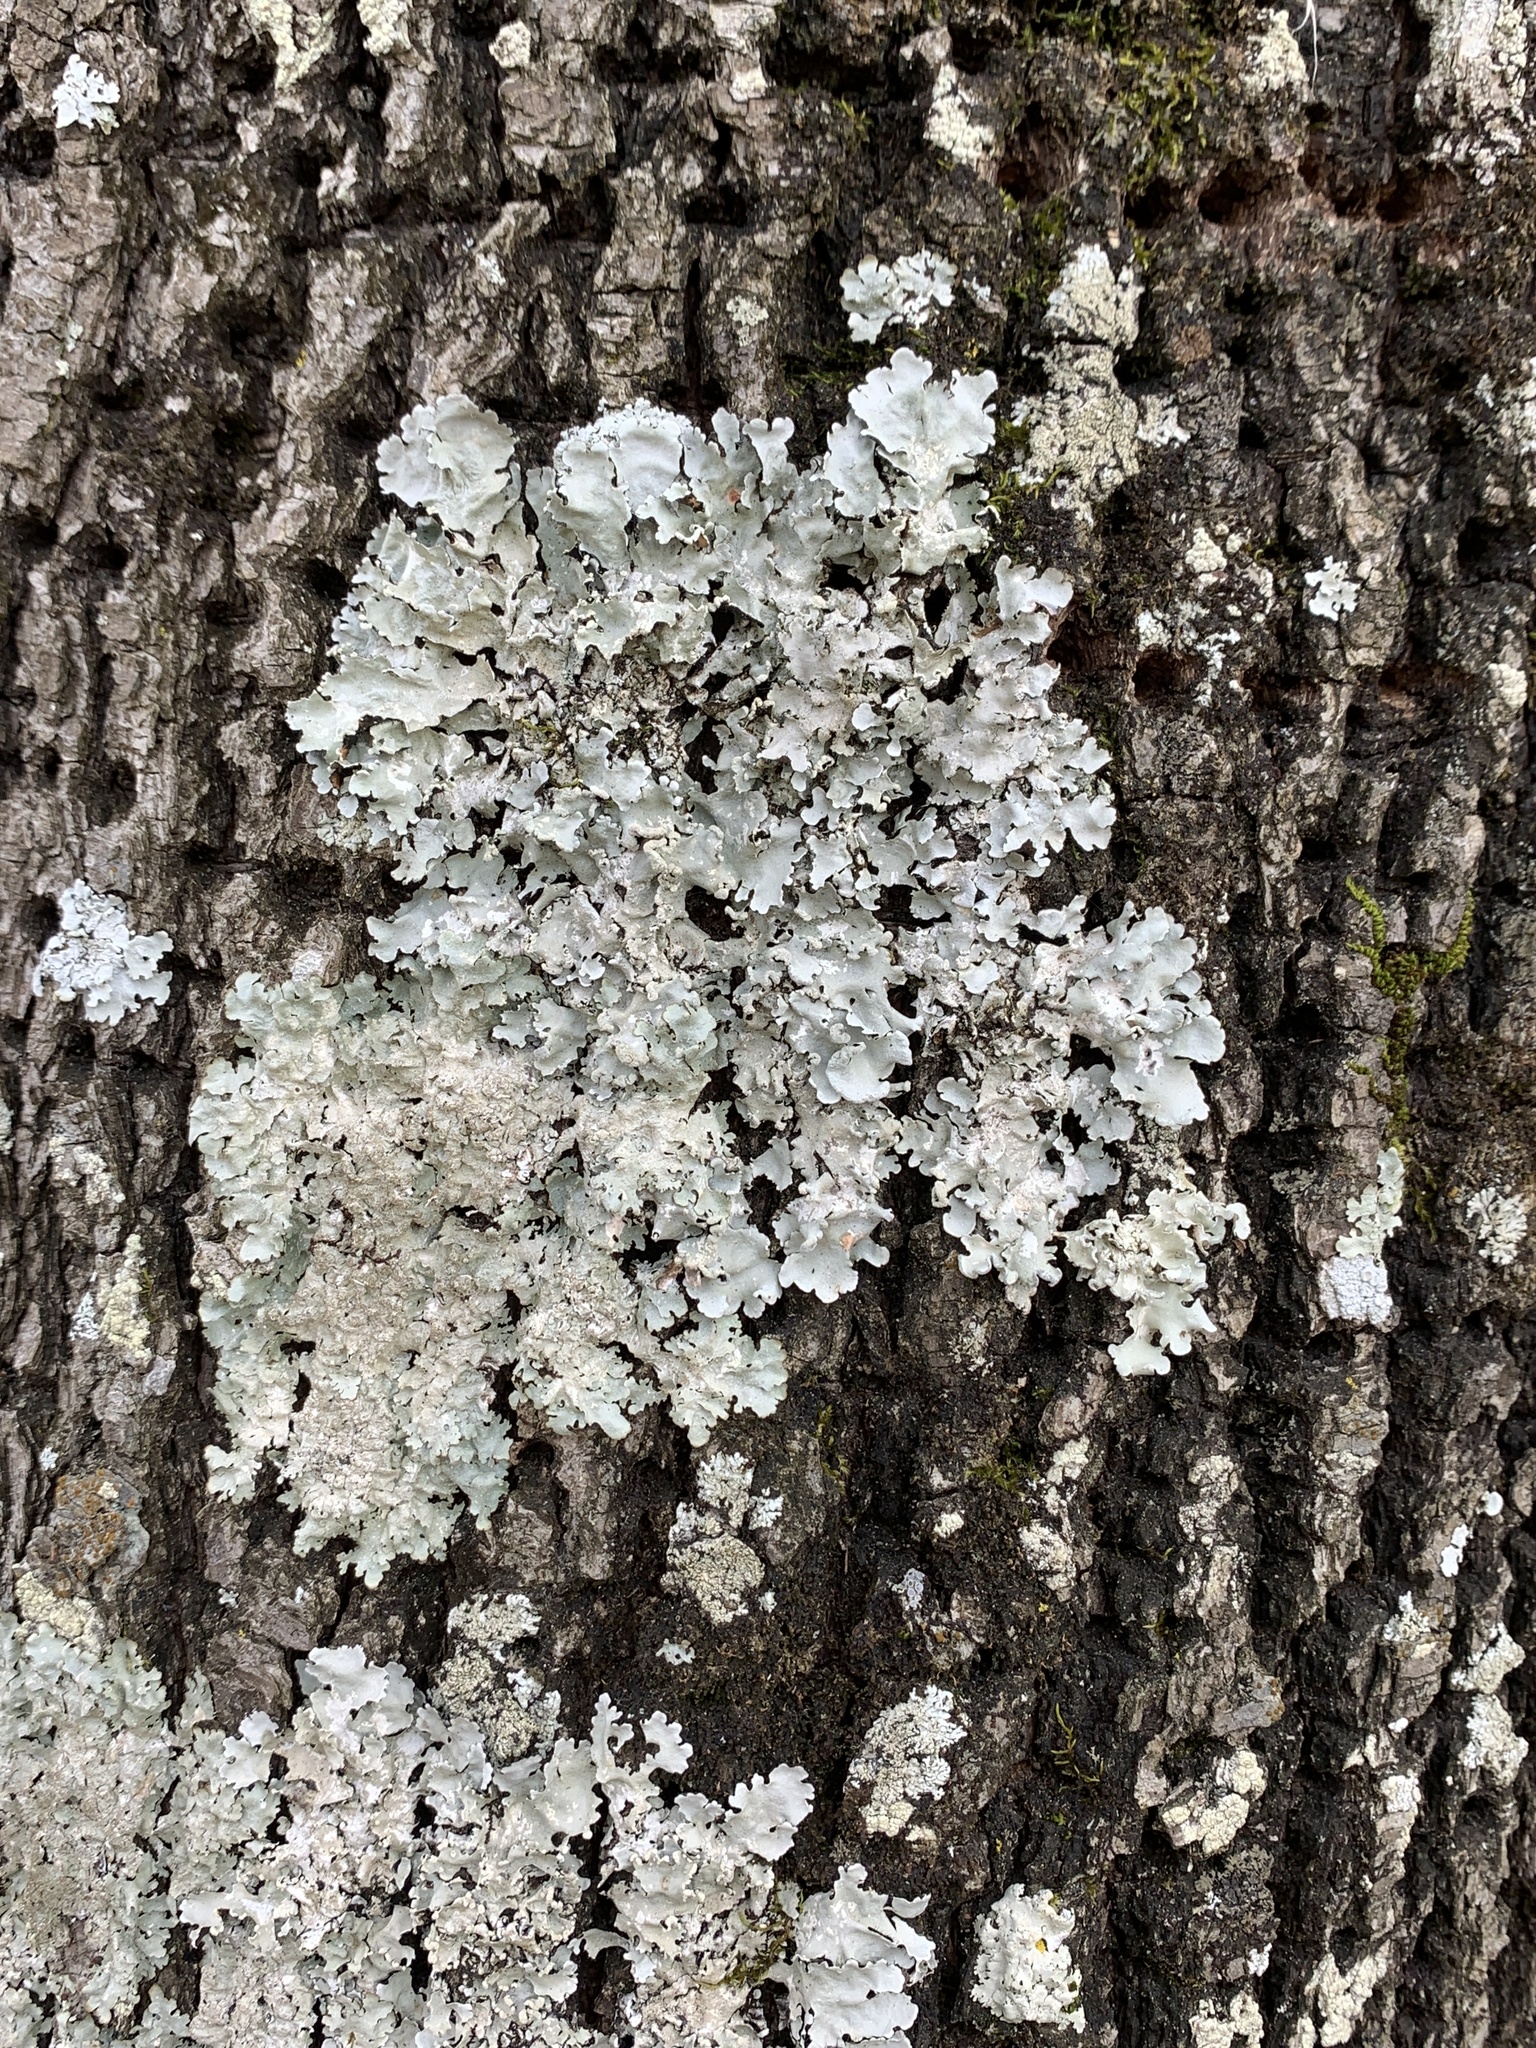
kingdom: Fungi
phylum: Ascomycota
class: Lecanoromycetes
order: Lecanorales
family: Parmeliaceae
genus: Parmotrema
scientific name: Parmotrema reticulatum
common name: Black sheet lichen
